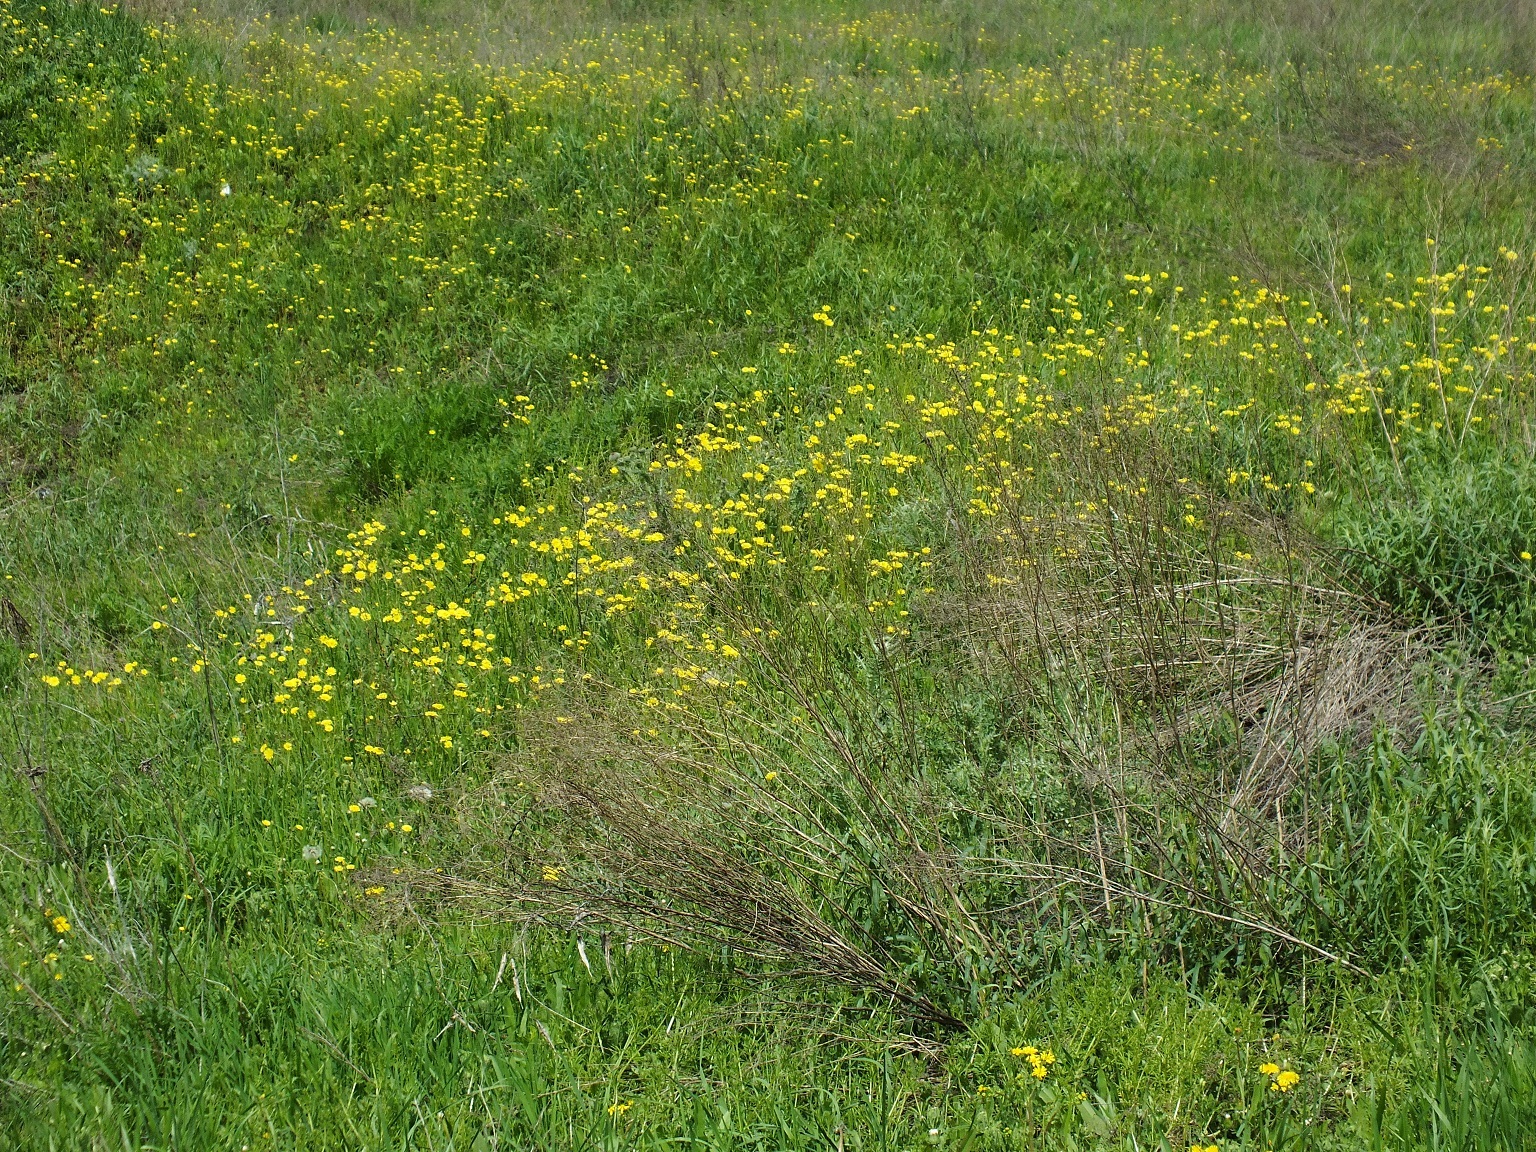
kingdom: Plantae
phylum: Tracheophyta
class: Magnoliopsida
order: Asterales
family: Asteraceae
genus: Crepis
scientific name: Crepis sancta
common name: Hawk's-beard
